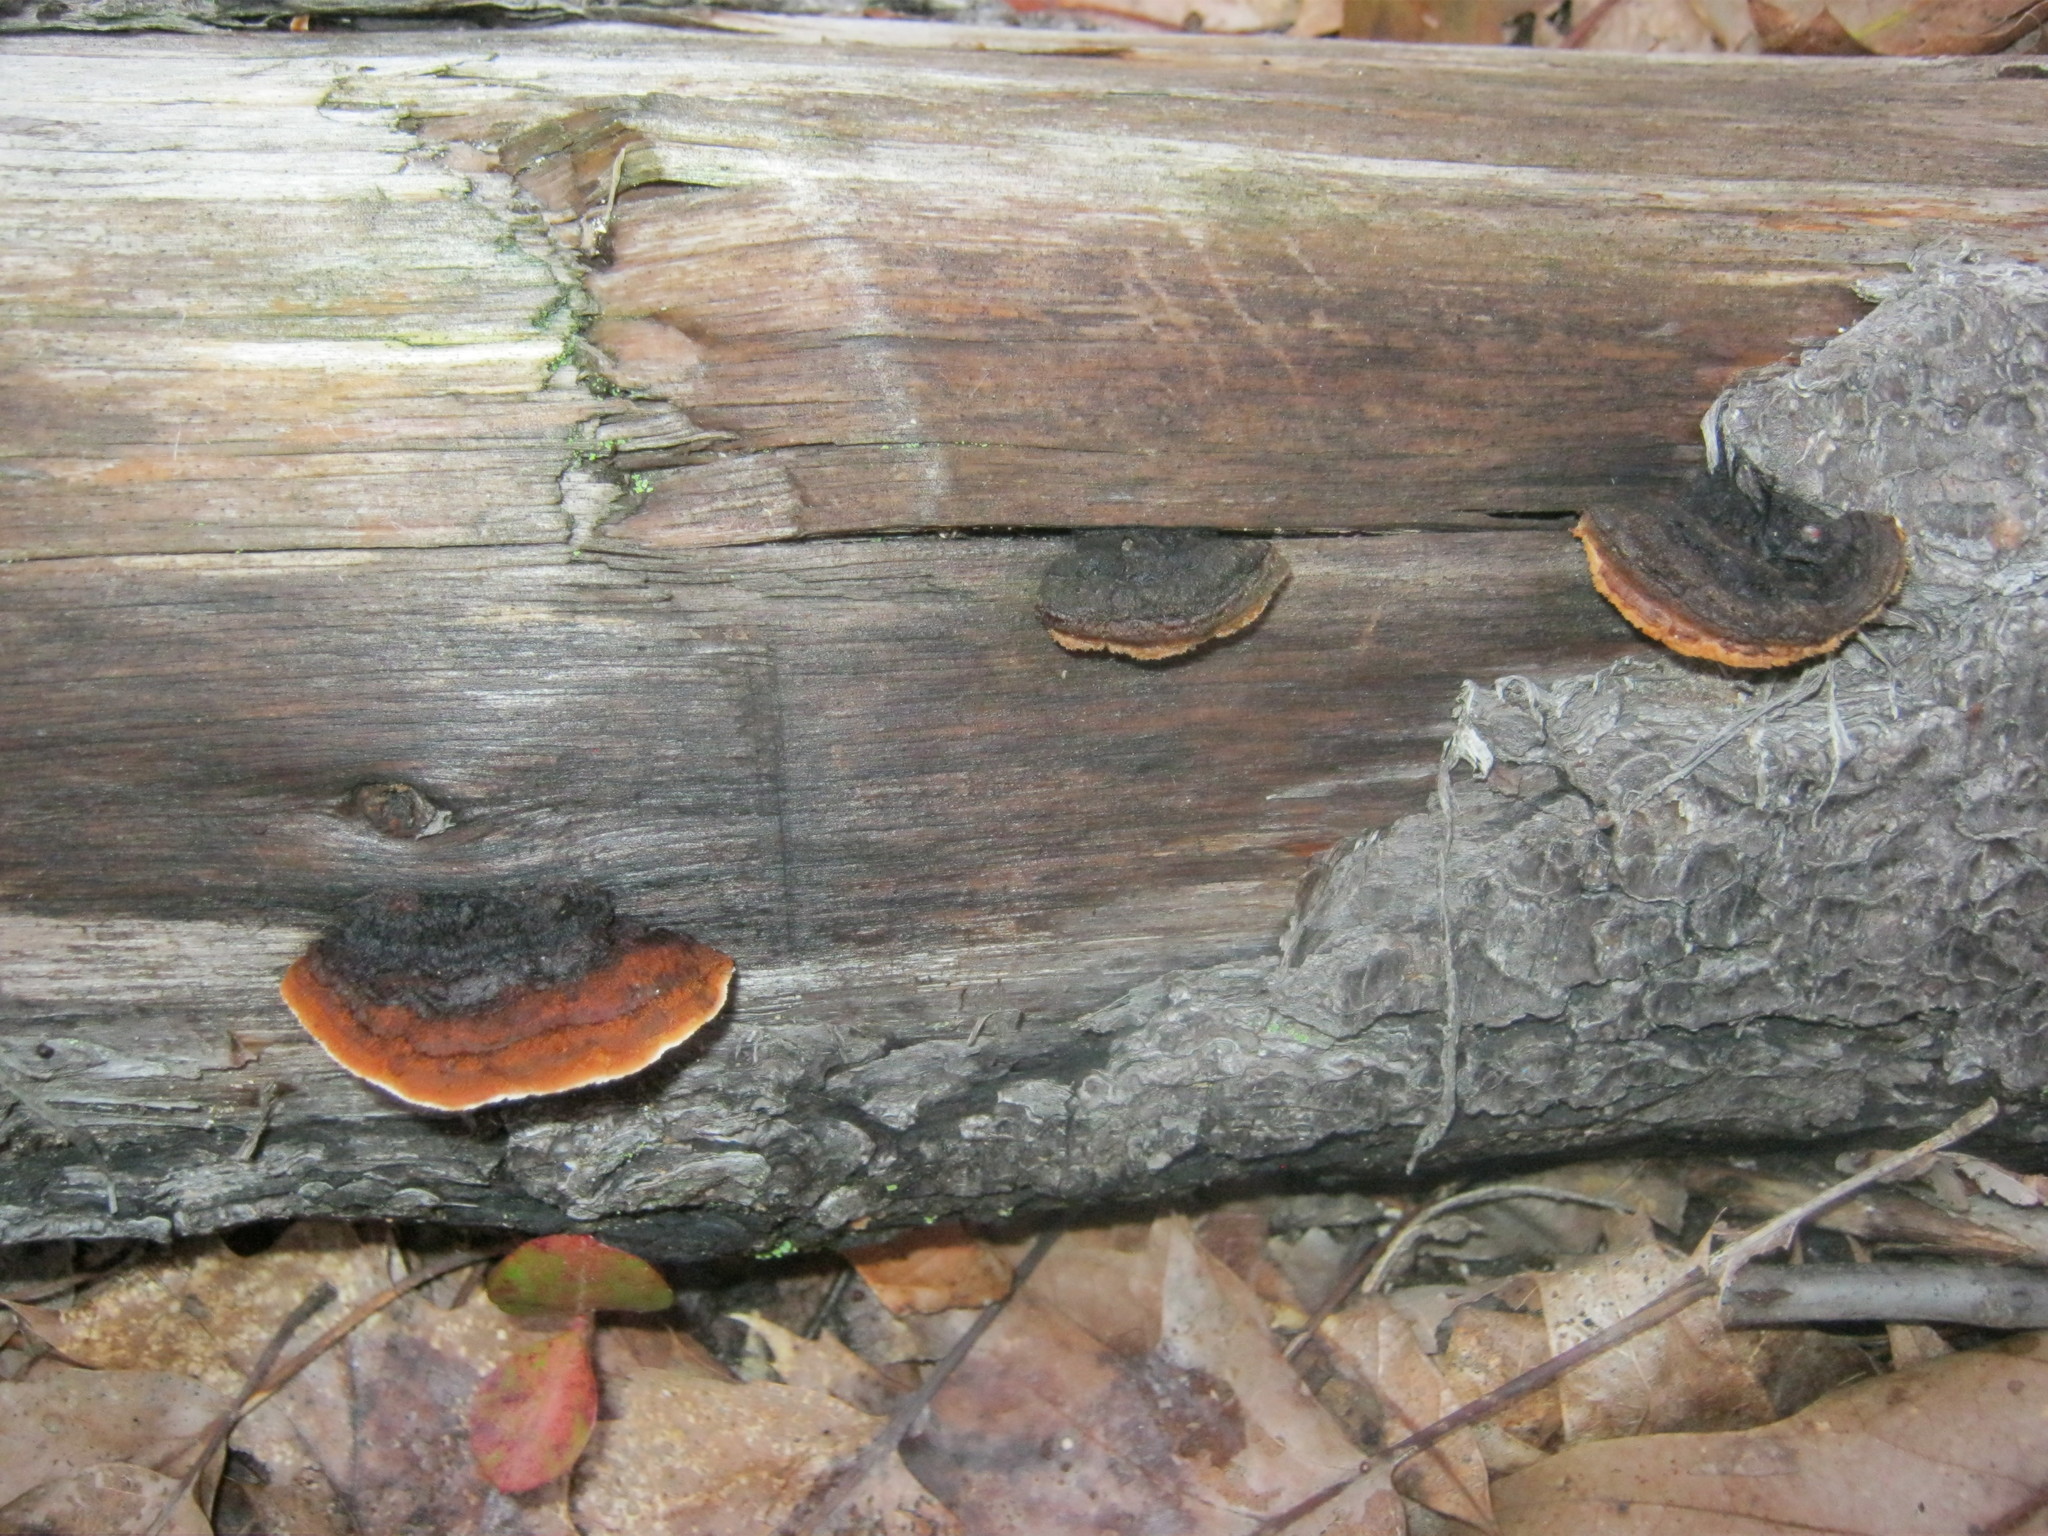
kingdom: Fungi
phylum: Basidiomycota
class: Agaricomycetes
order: Gloeophyllales
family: Gloeophyllaceae
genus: Gloeophyllum
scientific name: Gloeophyllum sepiarium
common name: Conifer mazegill
